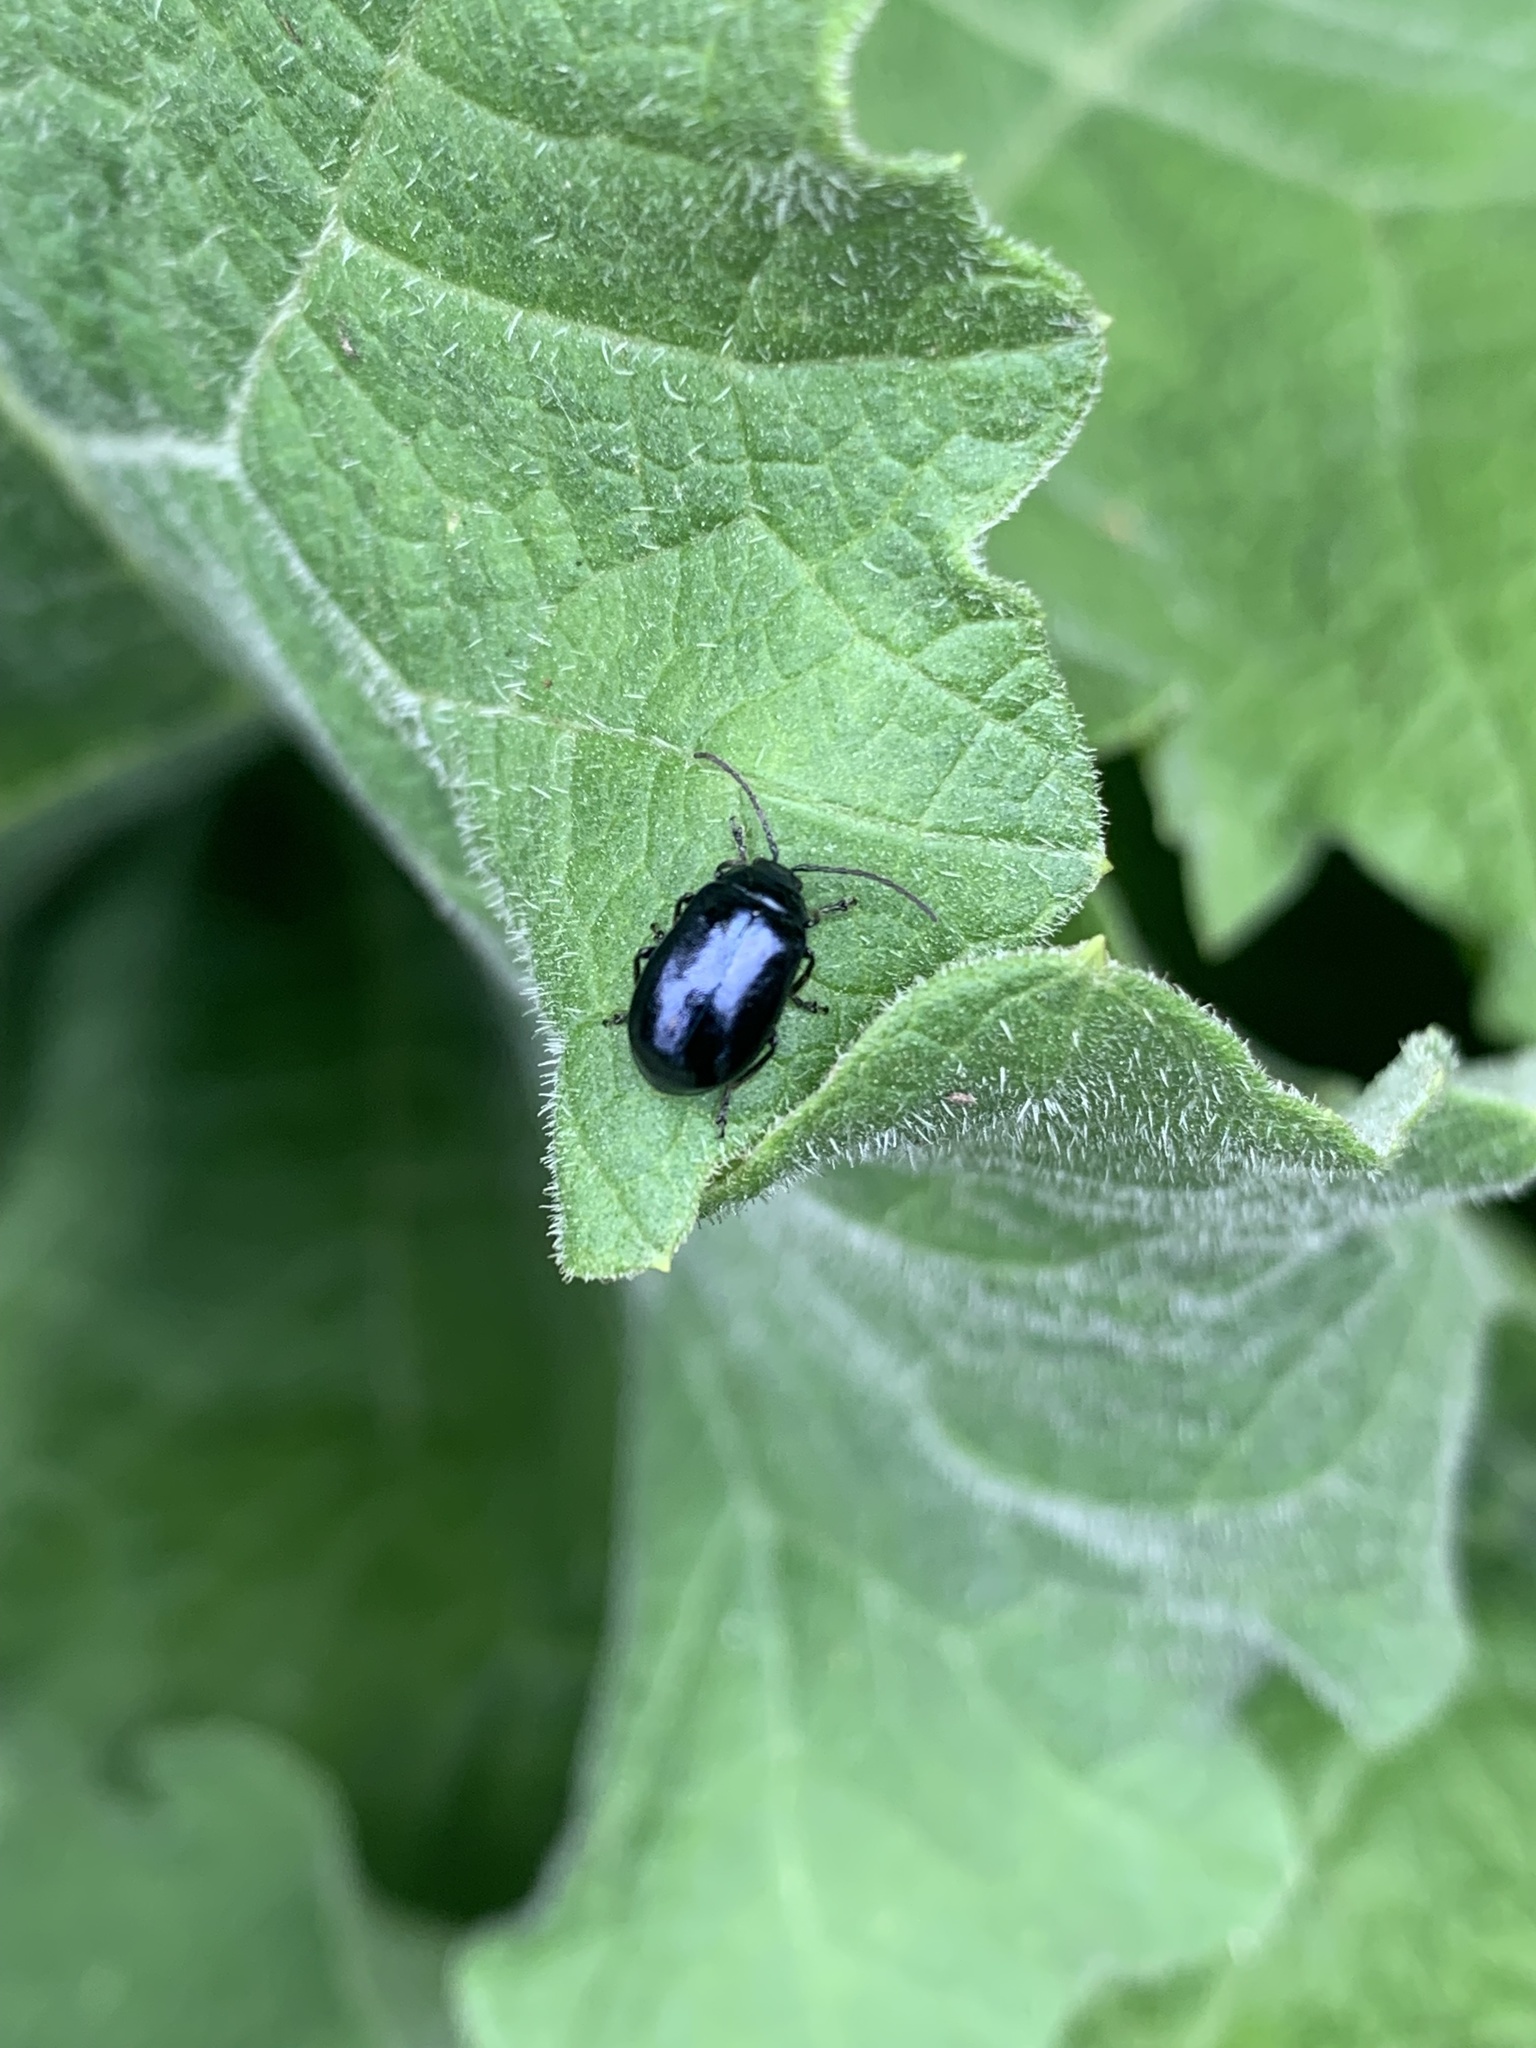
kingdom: Animalia
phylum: Arthropoda
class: Insecta
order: Coleoptera
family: Chrysomelidae
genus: Agelastica
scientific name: Agelastica alni
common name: Alder leaf beetle
